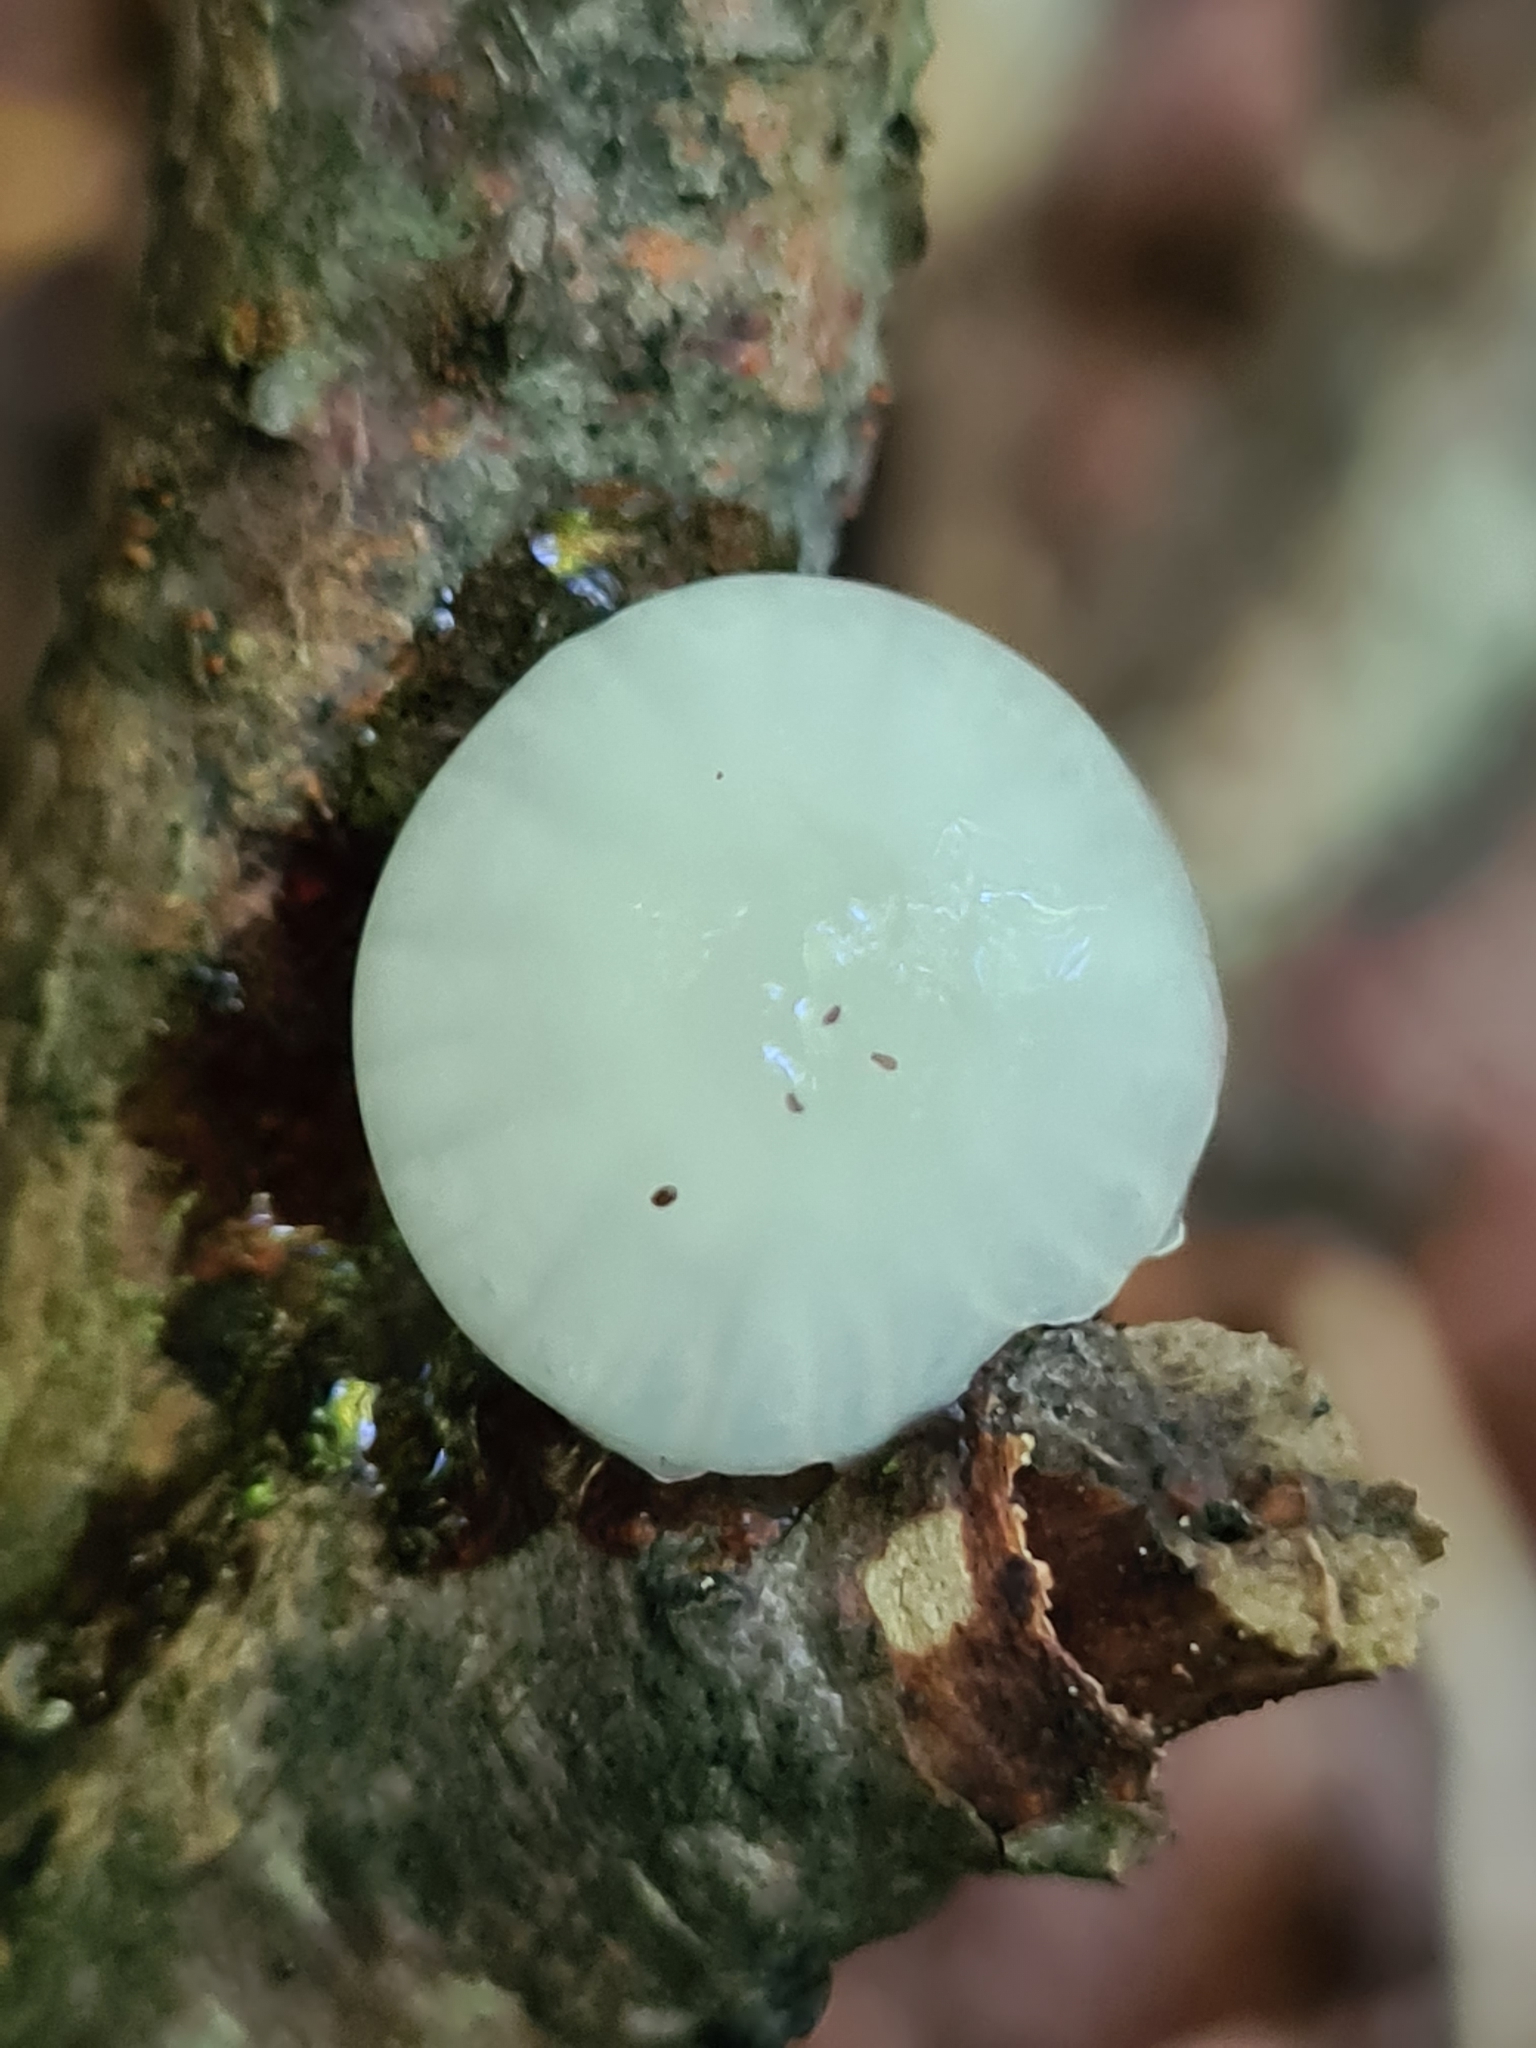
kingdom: Fungi
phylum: Basidiomycota
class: Agaricomycetes
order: Agaricales
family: Physalacriaceae
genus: Mucidula
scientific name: Mucidula mucida
